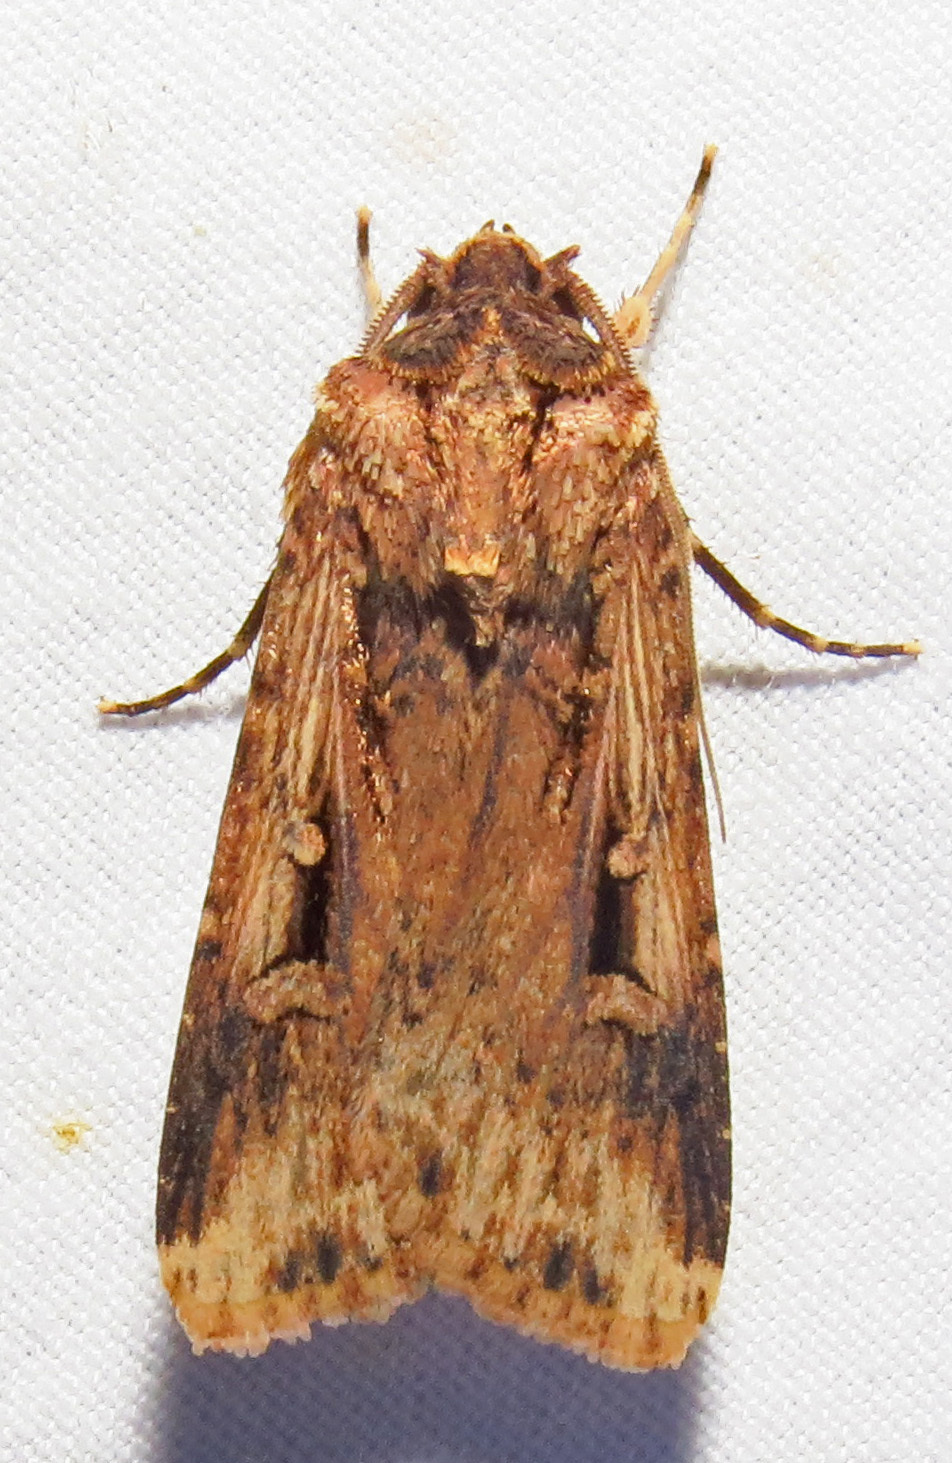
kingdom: Animalia
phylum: Arthropoda
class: Insecta
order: Lepidoptera
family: Noctuidae
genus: Feltia
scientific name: Feltia subterranea
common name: Granulate cutworm
